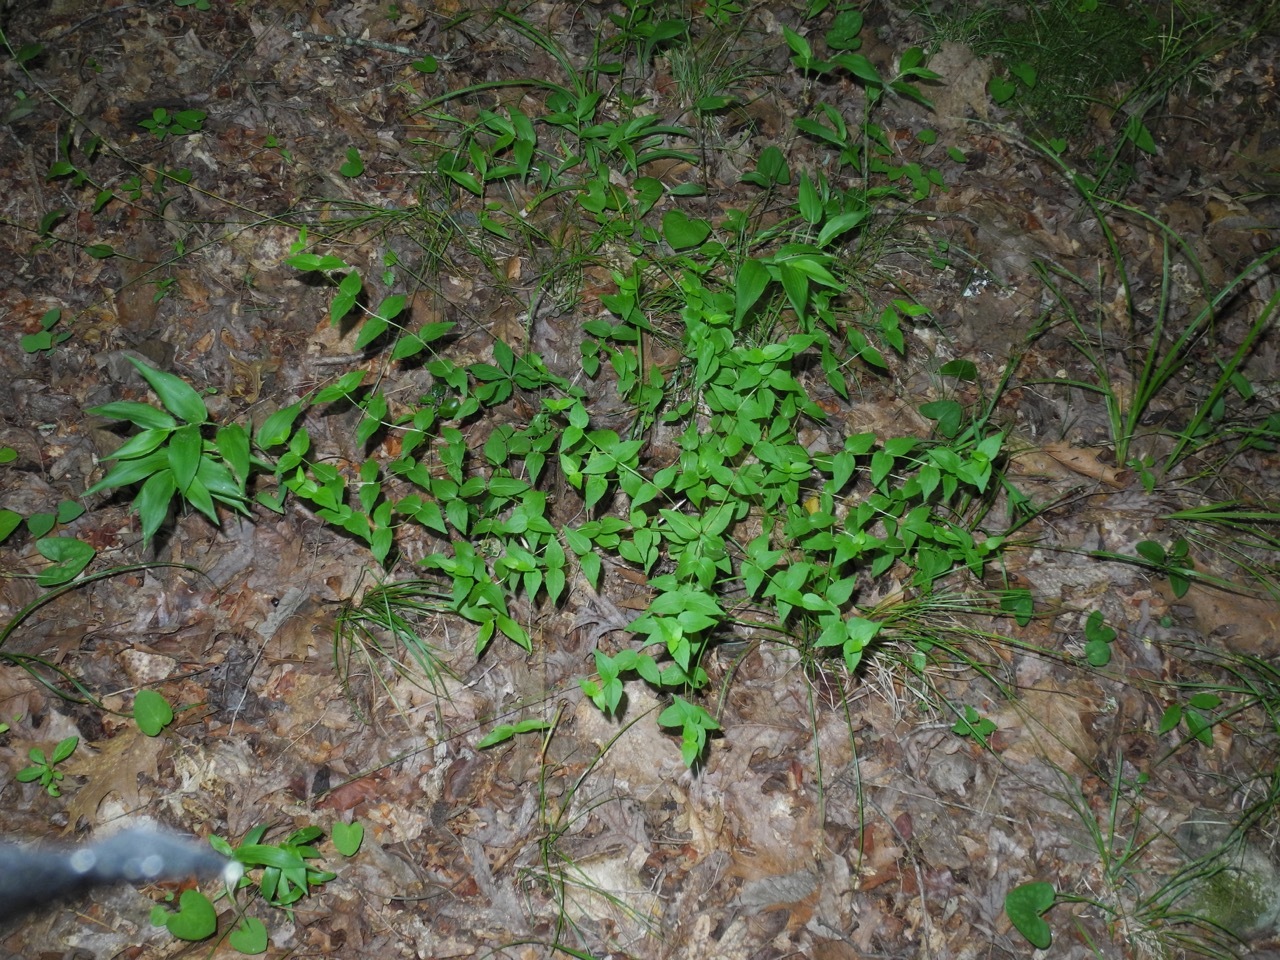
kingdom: Plantae
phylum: Tracheophyta
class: Magnoliopsida
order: Lamiales
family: Lamiaceae
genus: Cunila
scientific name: Cunila origanoides
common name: American dittany
